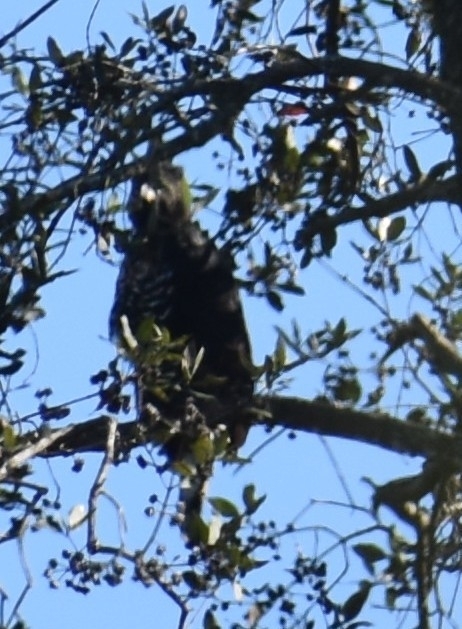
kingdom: Animalia
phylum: Chordata
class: Aves
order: Accipitriformes
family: Accipitridae
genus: Stephanoaetus
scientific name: Stephanoaetus coronatus
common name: Crowned eagle
